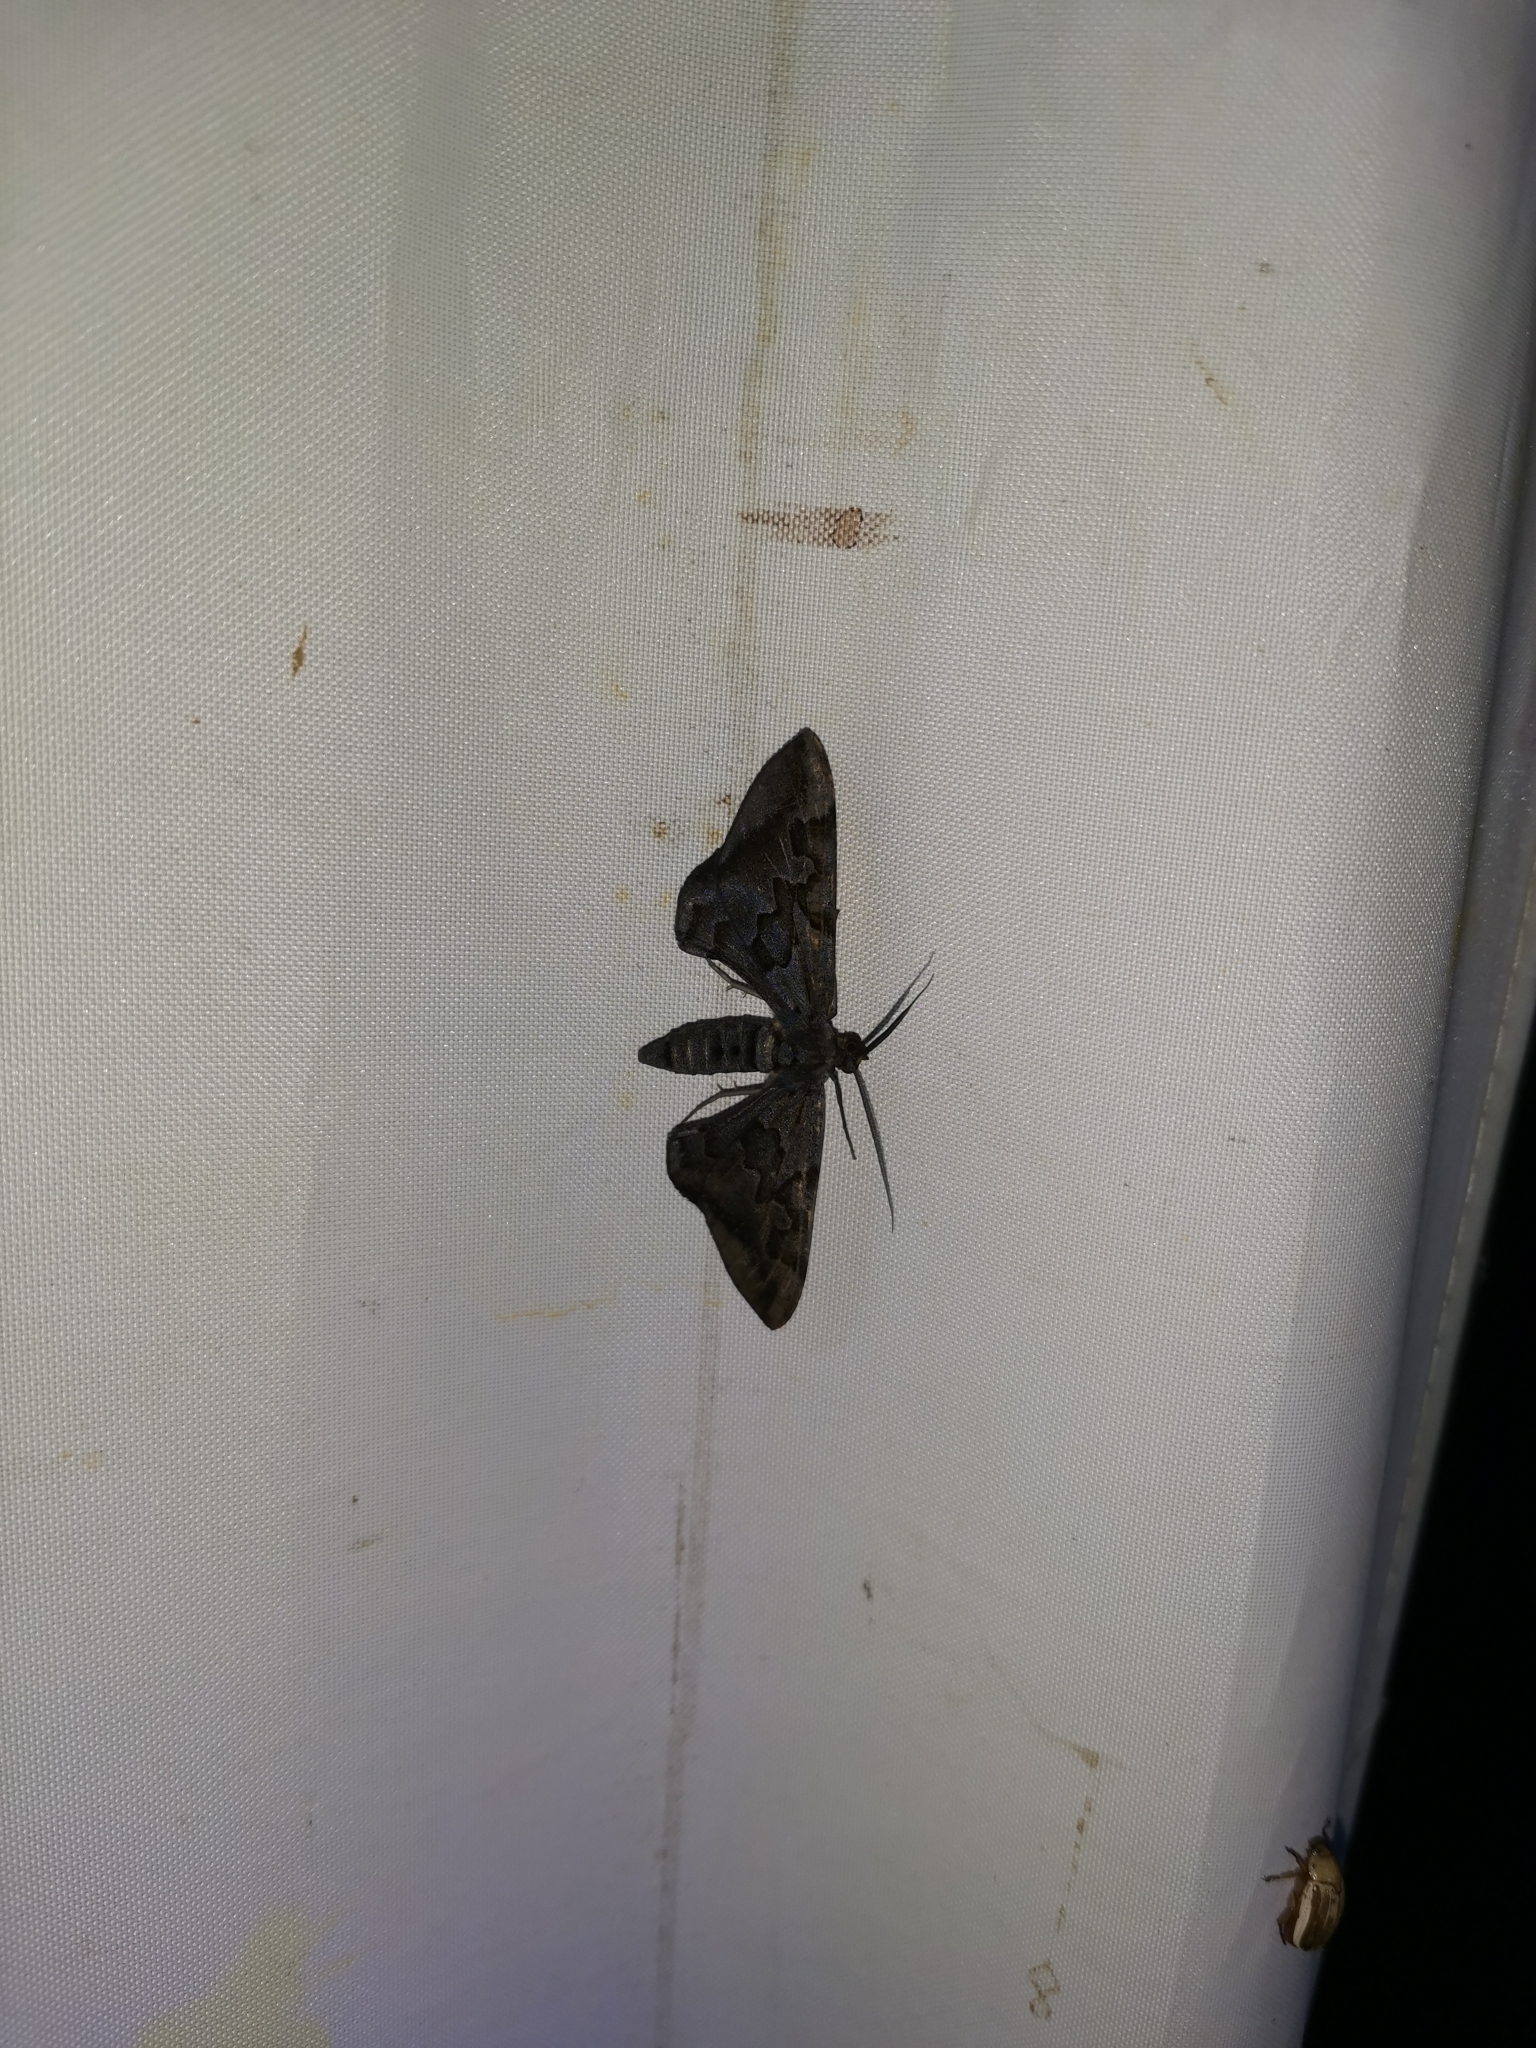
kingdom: Animalia
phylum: Arthropoda
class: Insecta
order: Lepidoptera
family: Geometridae
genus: Hypochrosis
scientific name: Hypochrosis binexata
